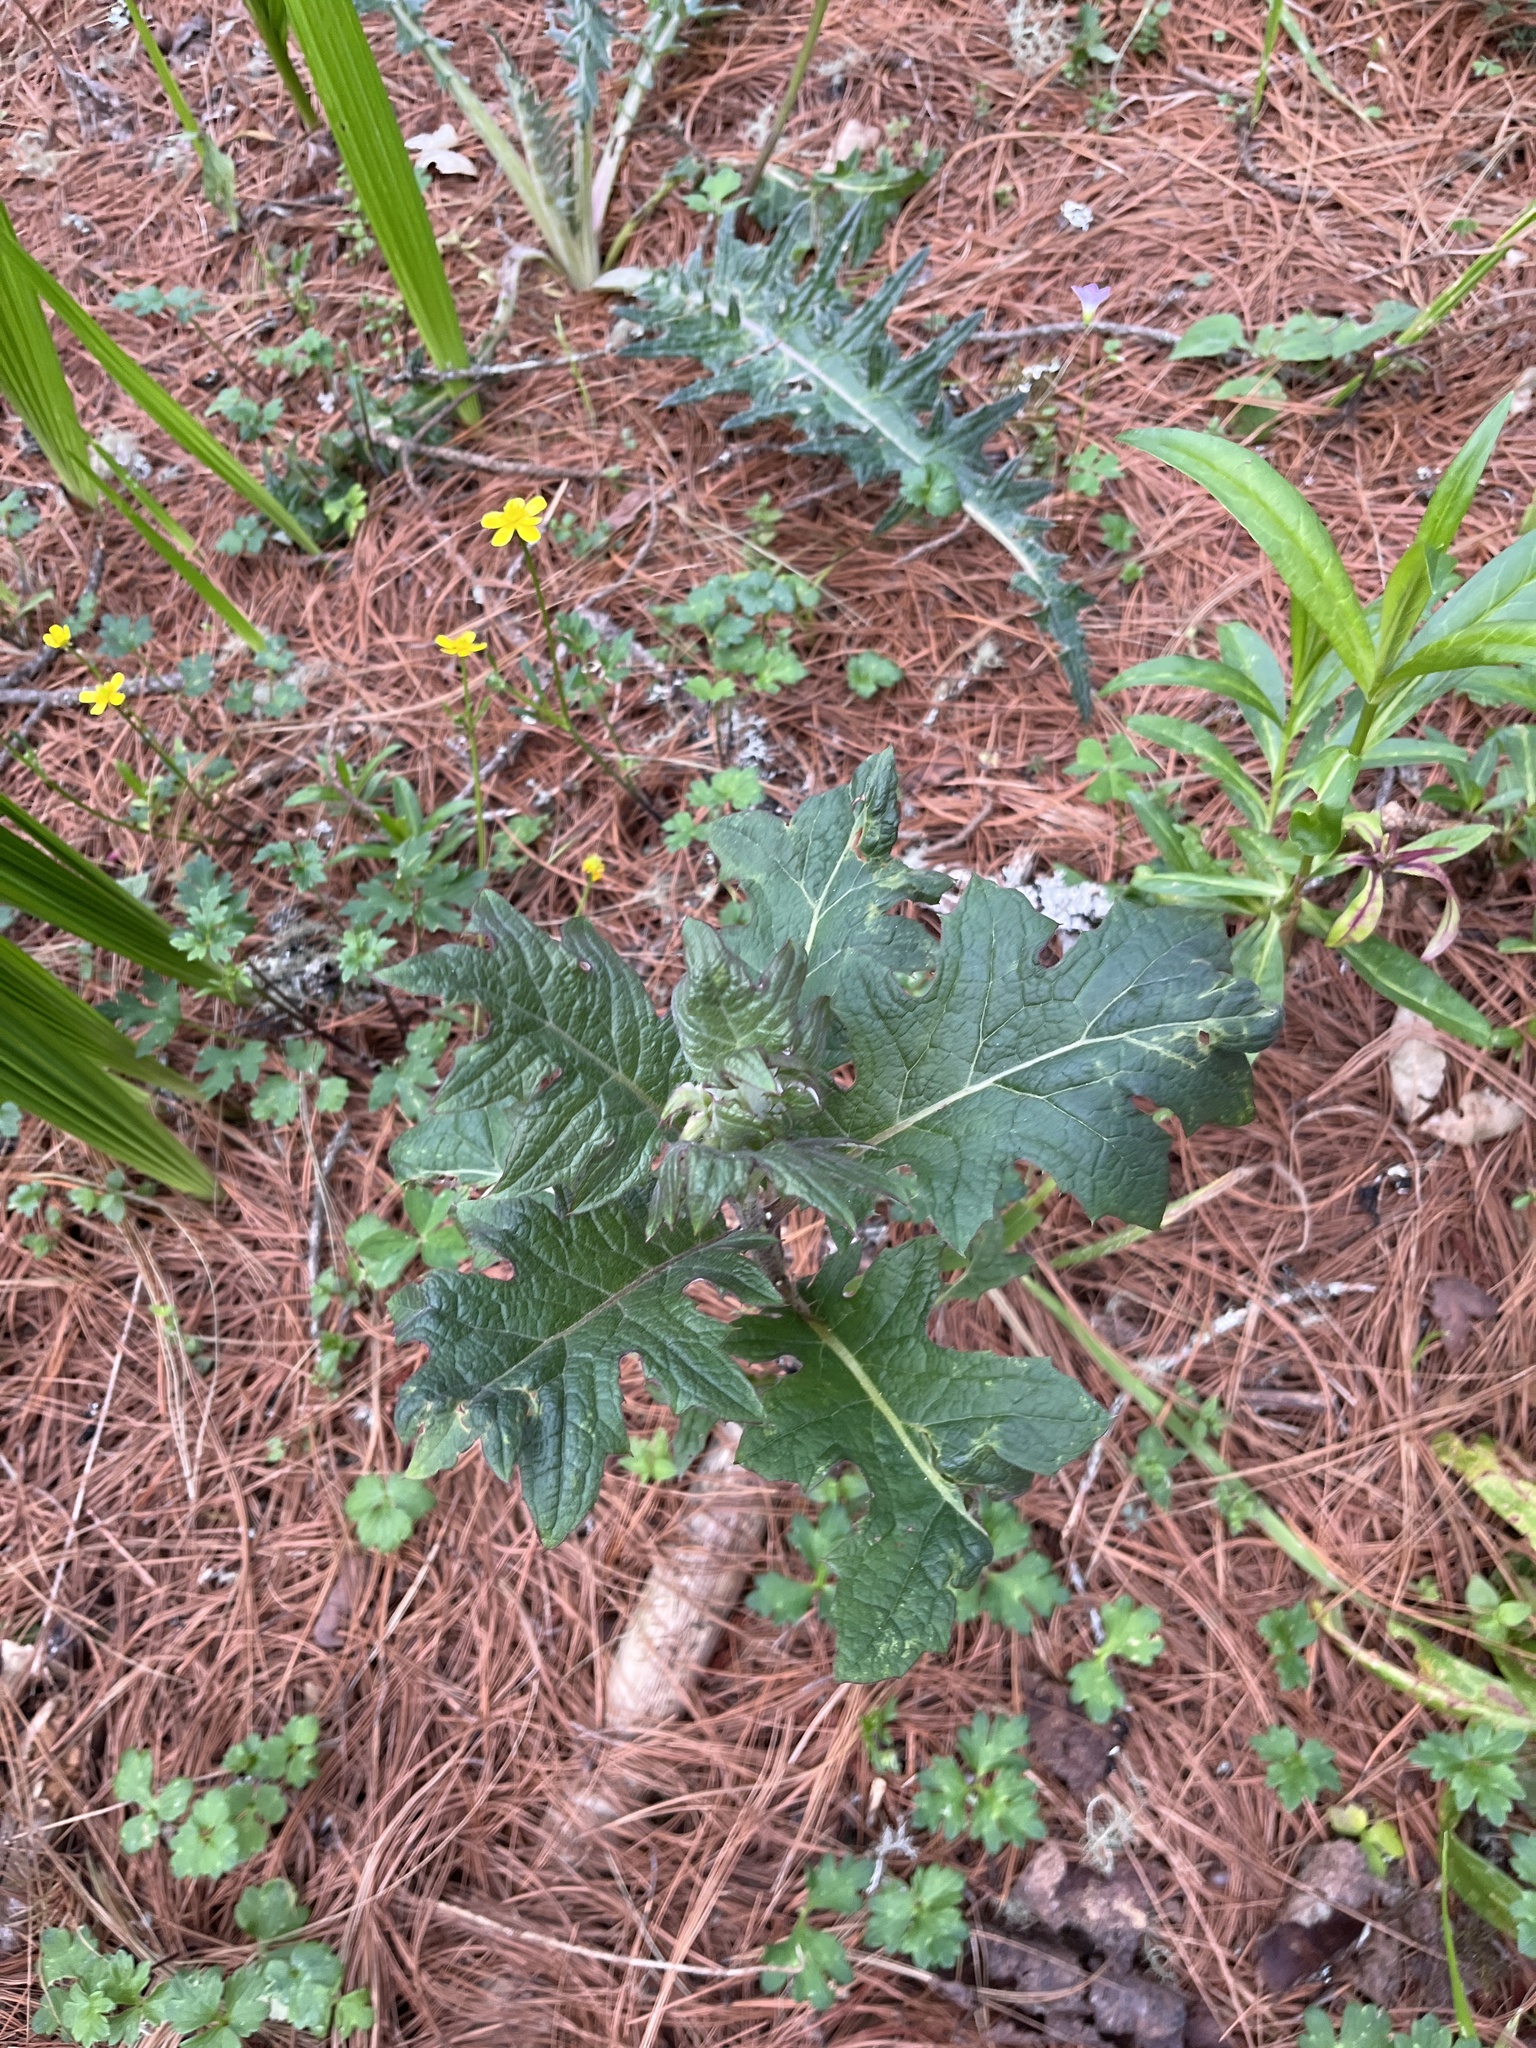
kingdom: Plantae
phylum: Tracheophyta
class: Magnoliopsida
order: Asterales
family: Asteraceae
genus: Roldana
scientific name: Roldana candicans
